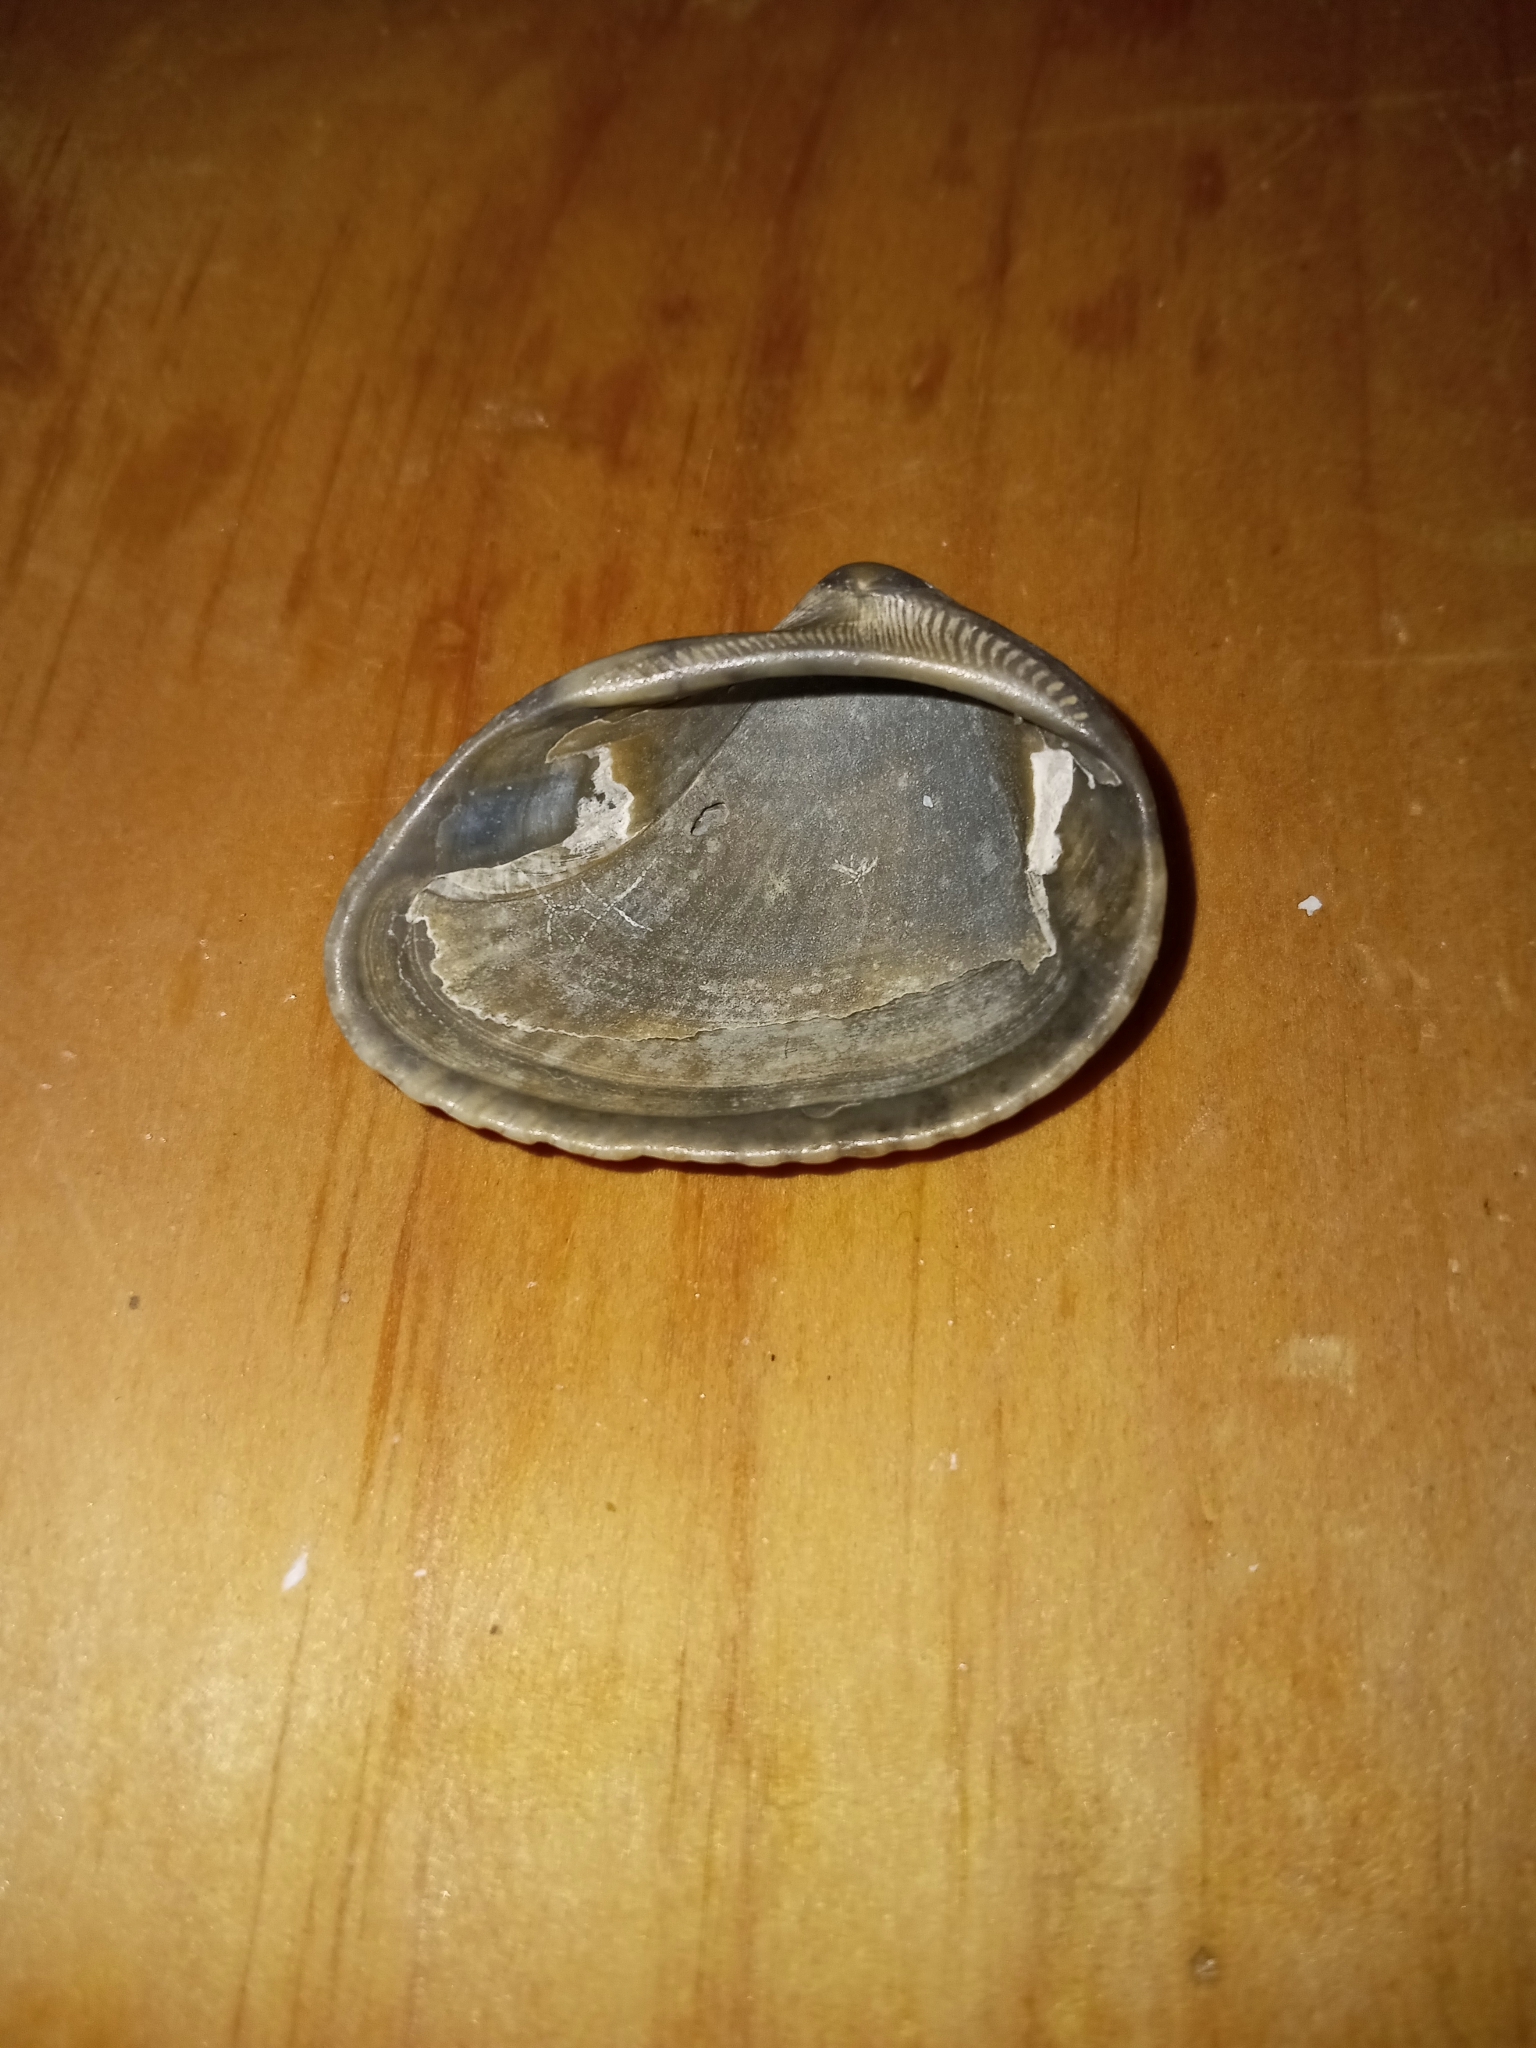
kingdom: Animalia
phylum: Mollusca
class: Bivalvia
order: Arcida
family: Noetiidae
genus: Noetia
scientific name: Noetia ponderosa
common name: Ponderous ark
